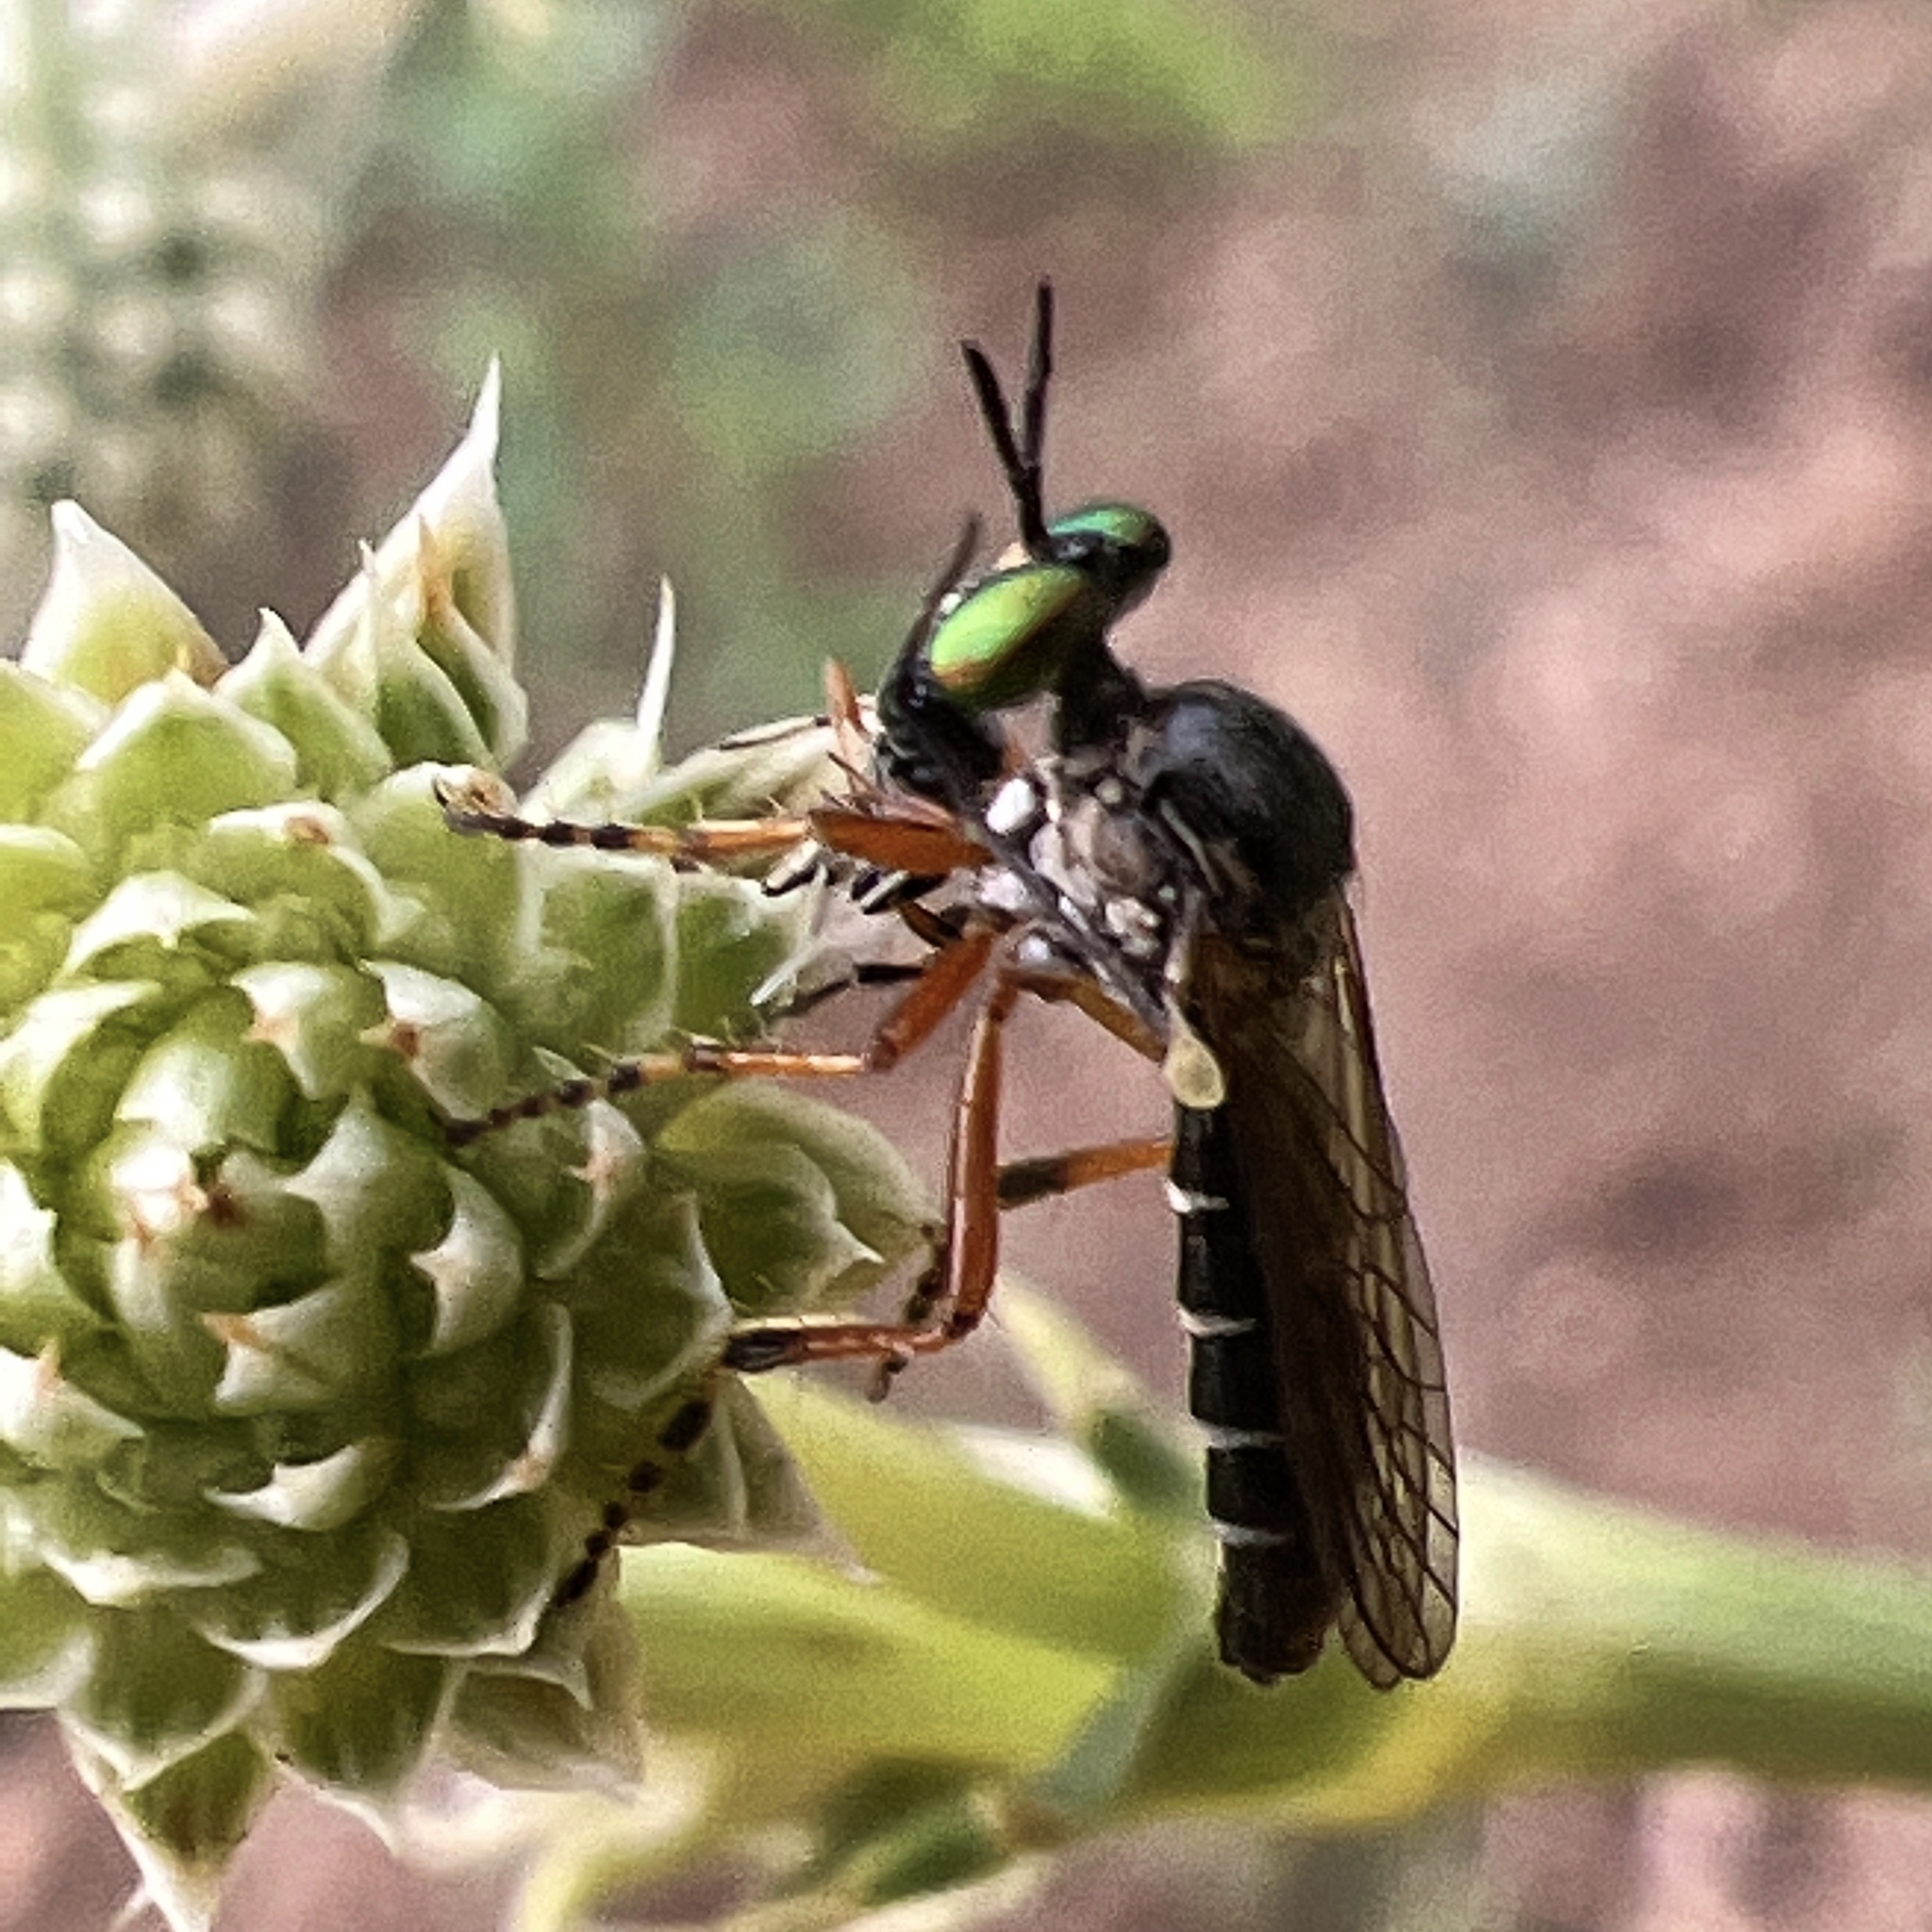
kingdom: Animalia
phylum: Arthropoda
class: Insecta
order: Diptera
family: Asilidae
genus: Taracticus
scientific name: Taracticus octopunctatus
